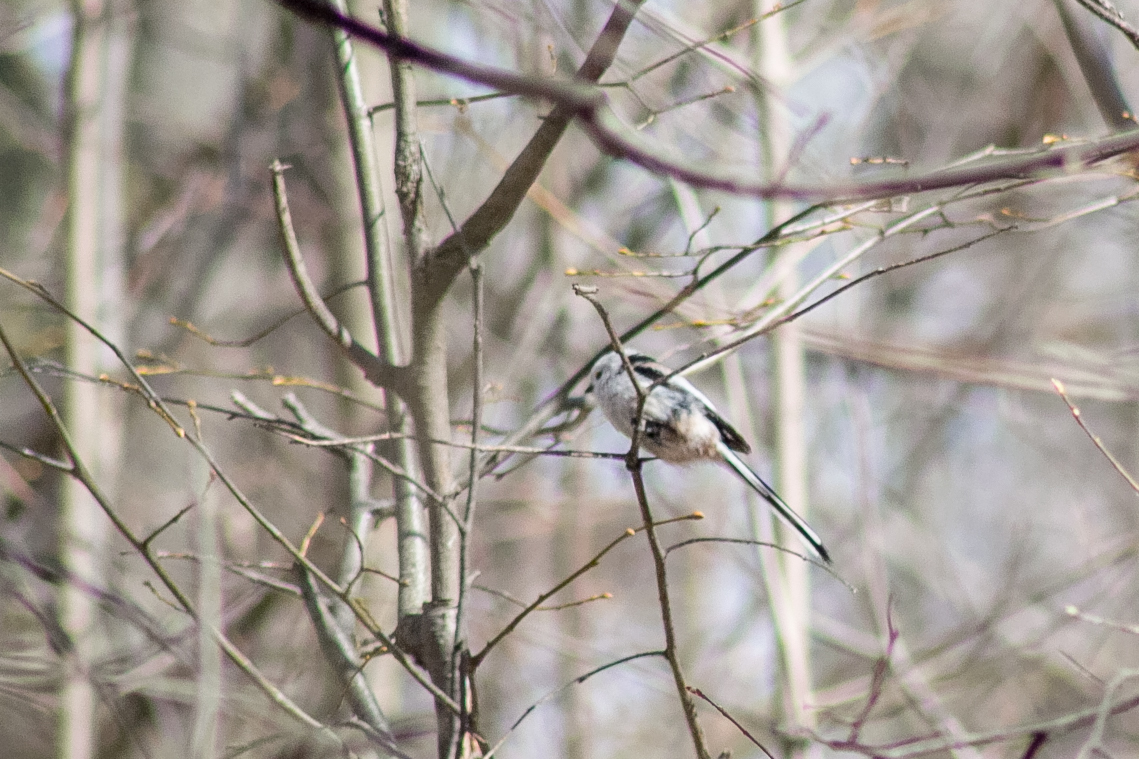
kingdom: Animalia
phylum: Chordata
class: Aves
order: Passeriformes
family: Aegithalidae
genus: Aegithalos
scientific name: Aegithalos caudatus
